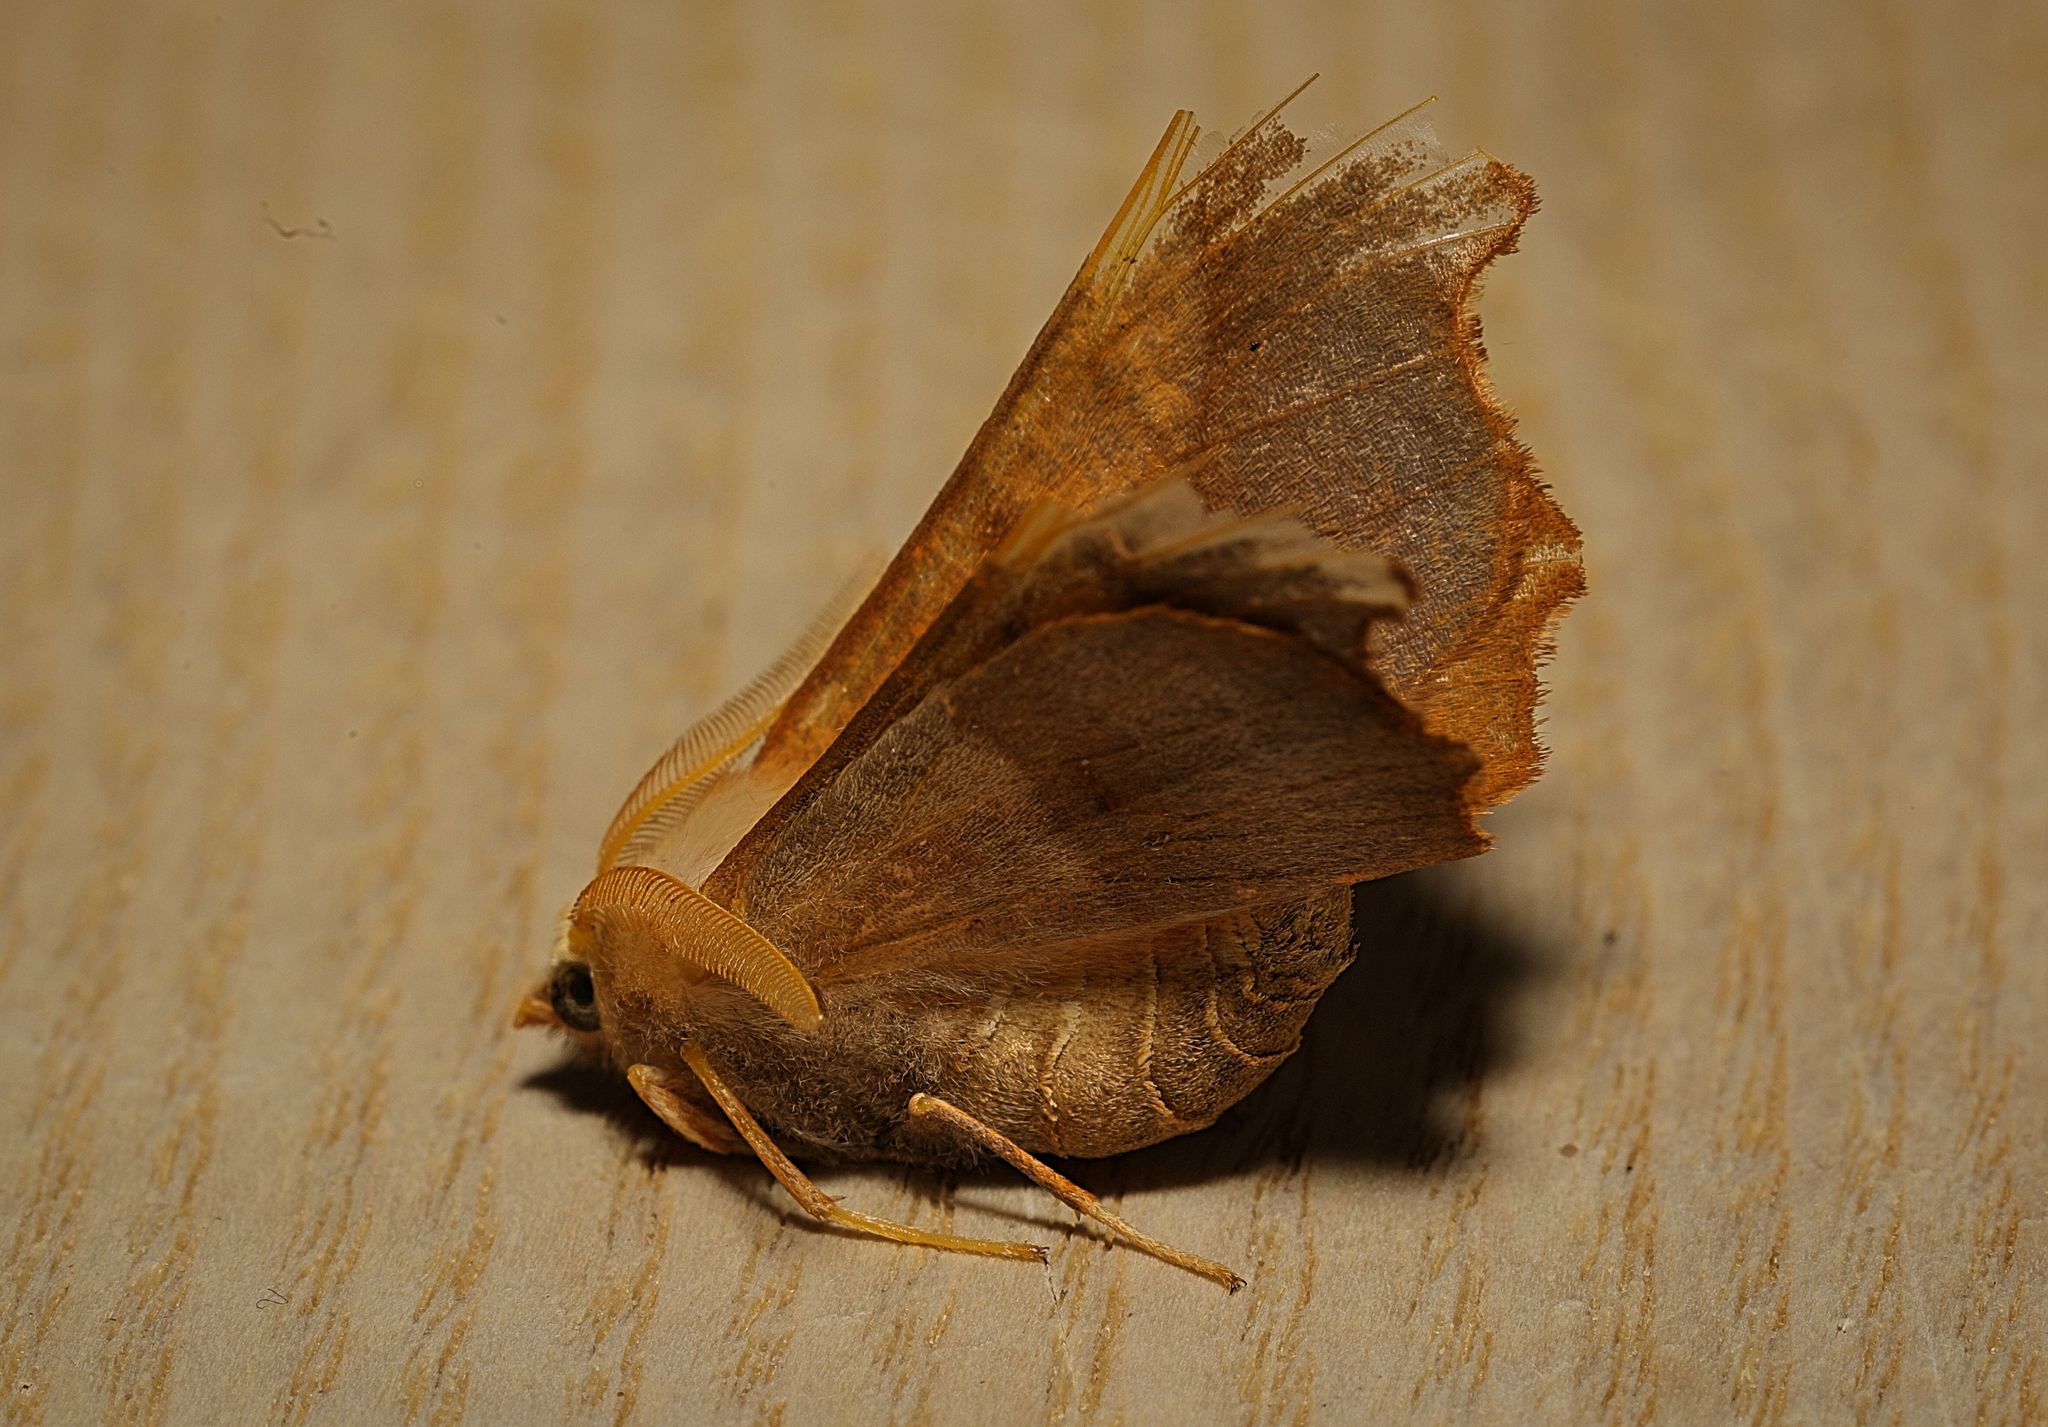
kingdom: Animalia
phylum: Arthropoda
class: Insecta
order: Lepidoptera
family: Geometridae
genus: Ennomos
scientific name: Ennomos fuscantaria
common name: Dusky thorn
